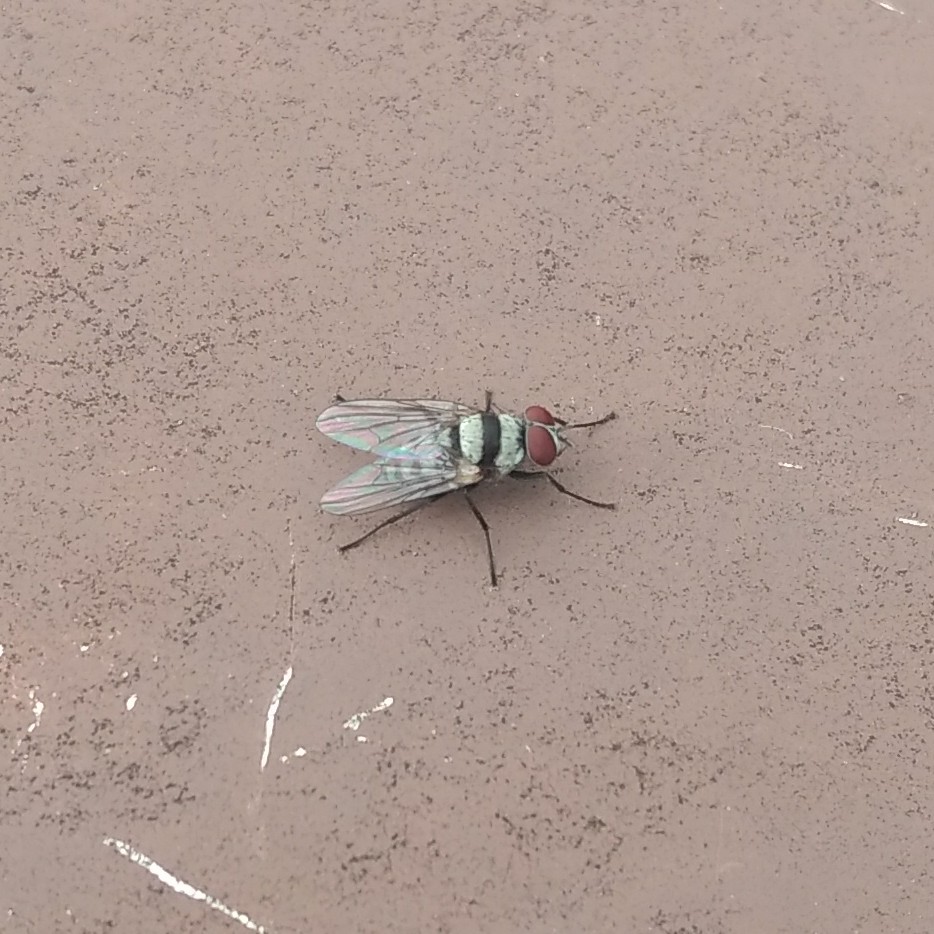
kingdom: Animalia
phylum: Arthropoda
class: Insecta
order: Diptera
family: Anthomyiidae
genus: Anthomyia
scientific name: Anthomyia illocata
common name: Fly
